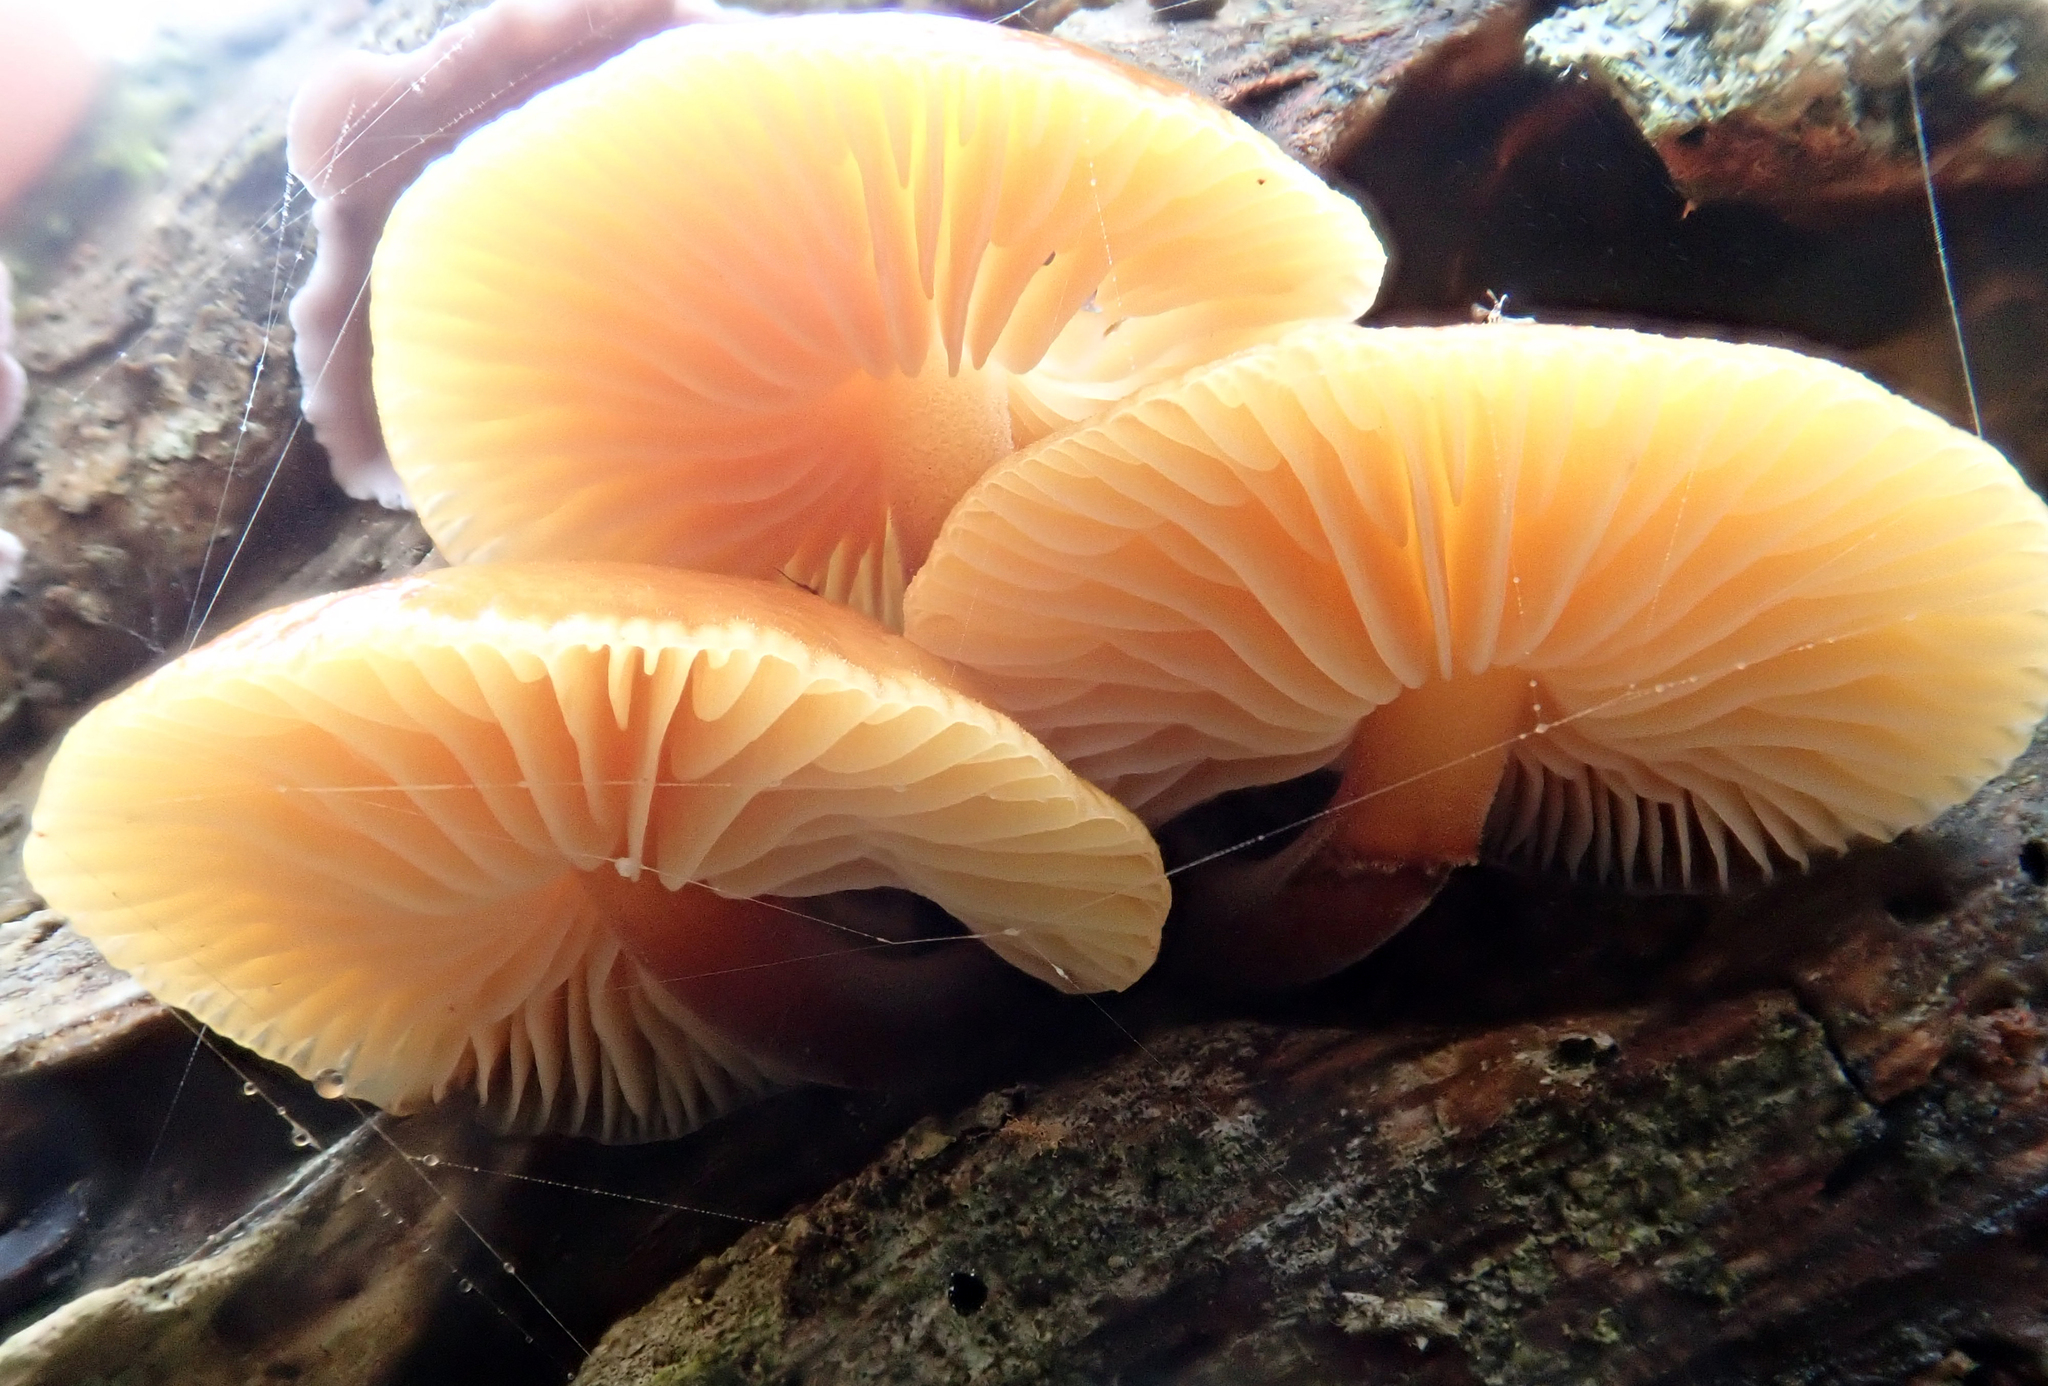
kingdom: Fungi
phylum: Basidiomycota
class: Agaricomycetes
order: Agaricales
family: Physalacriaceae
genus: Flammulina
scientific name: Flammulina velutipes
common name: Velvet shank
